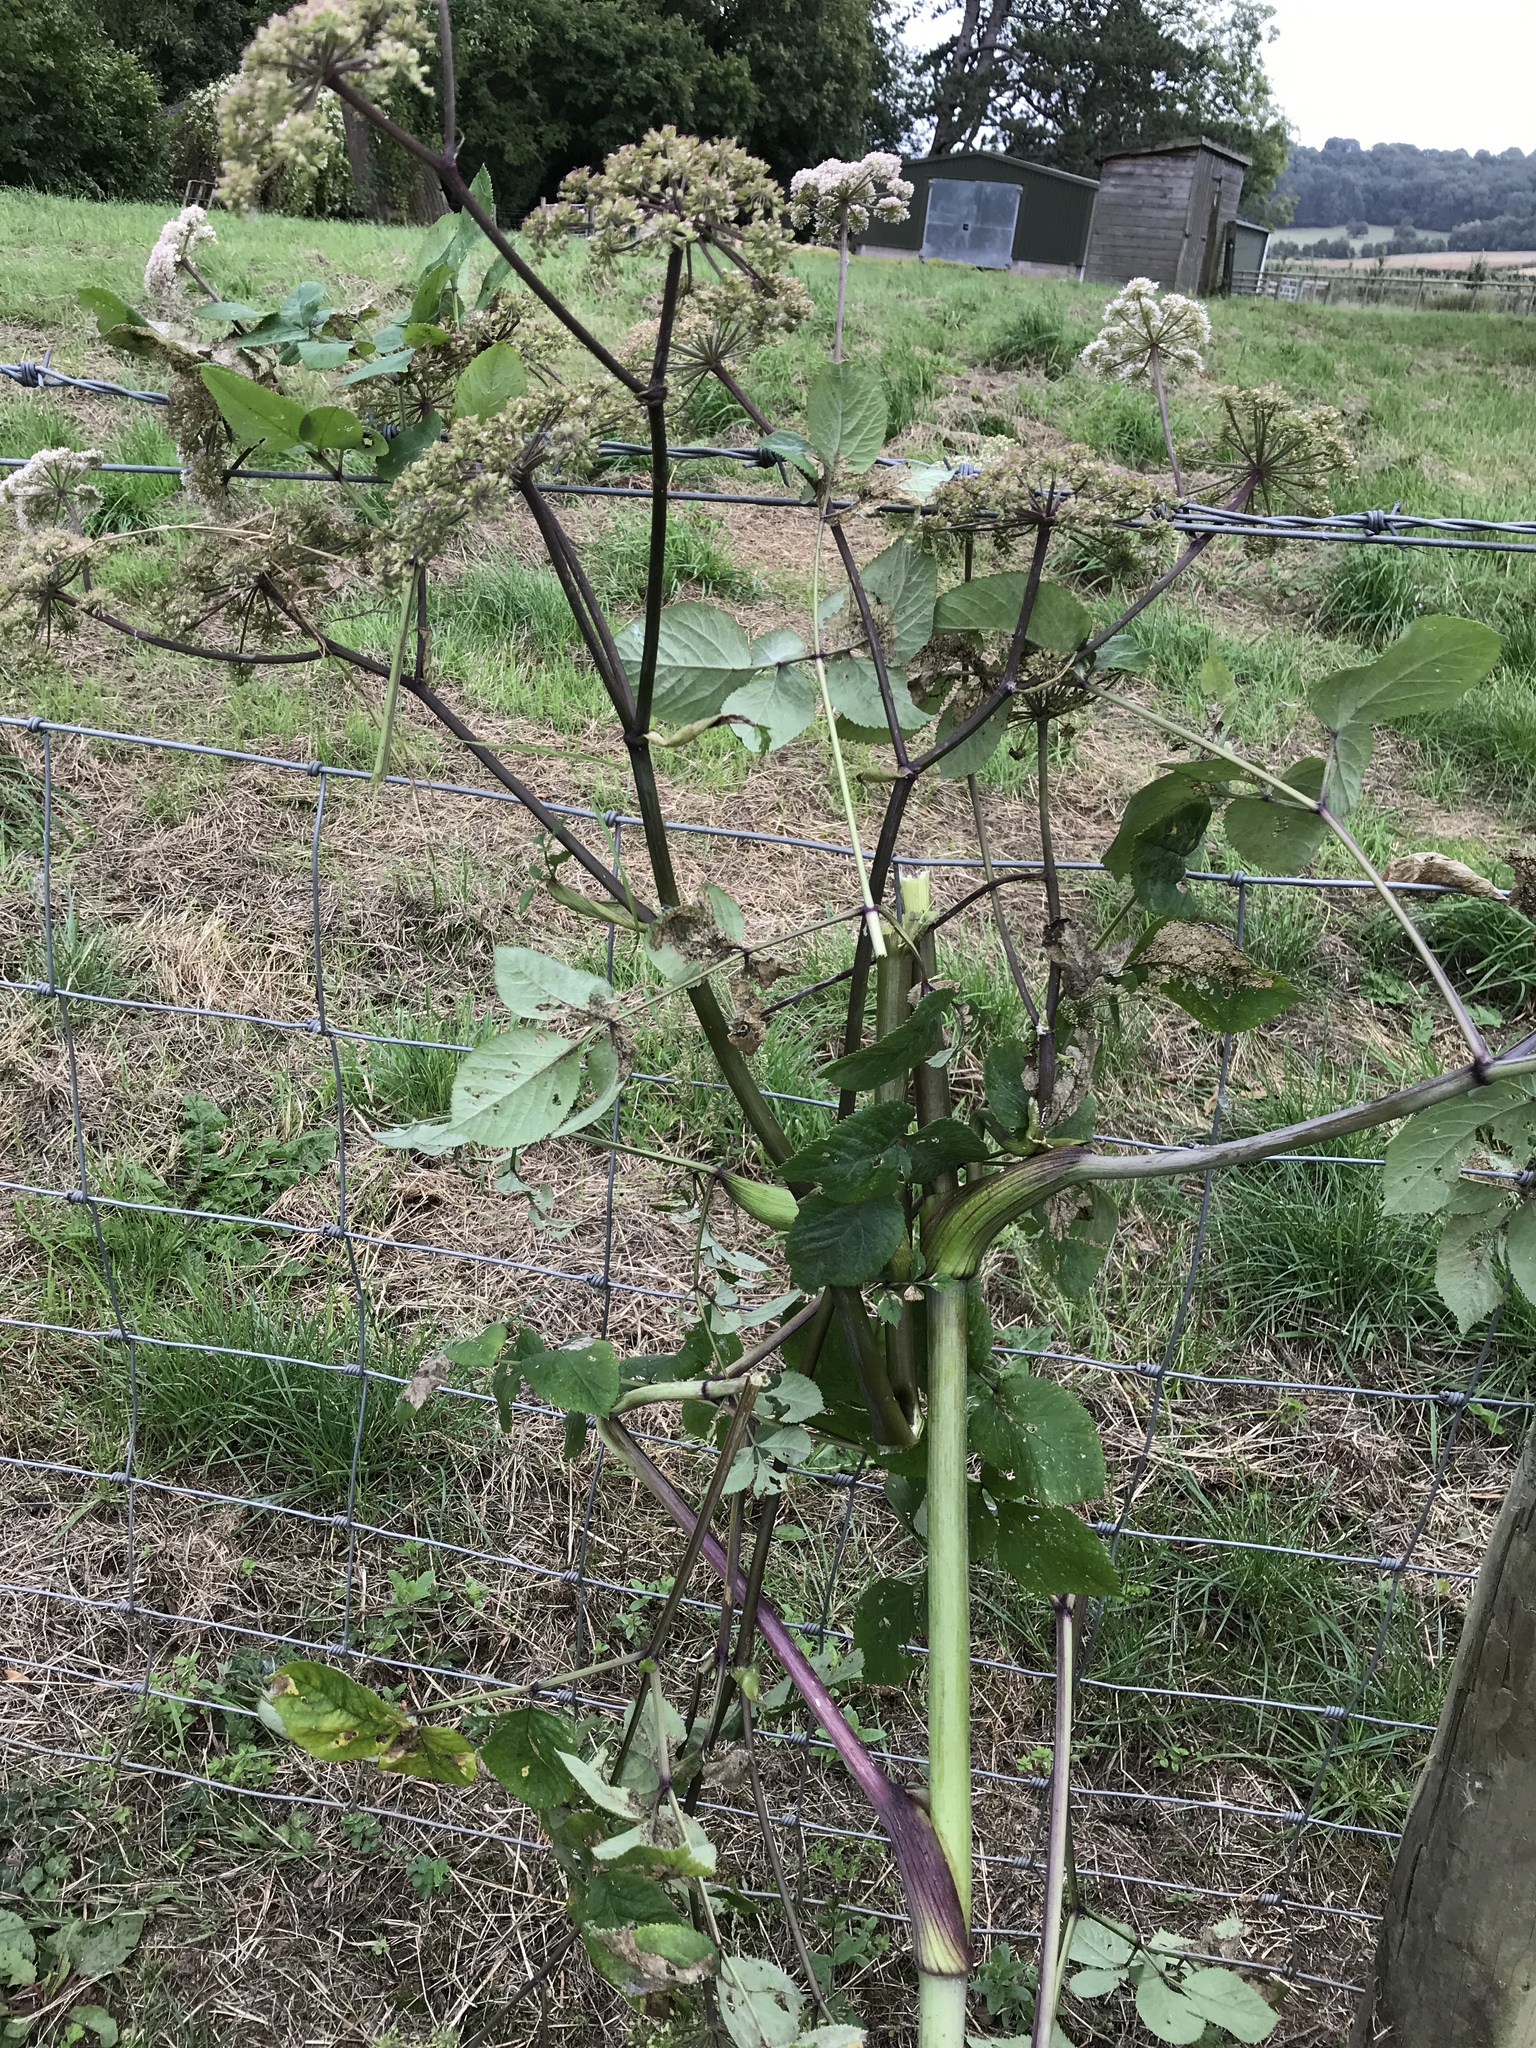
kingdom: Plantae
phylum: Tracheophyta
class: Magnoliopsida
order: Apiales
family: Apiaceae
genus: Angelica
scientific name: Angelica sylvestris
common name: Wild angelica
